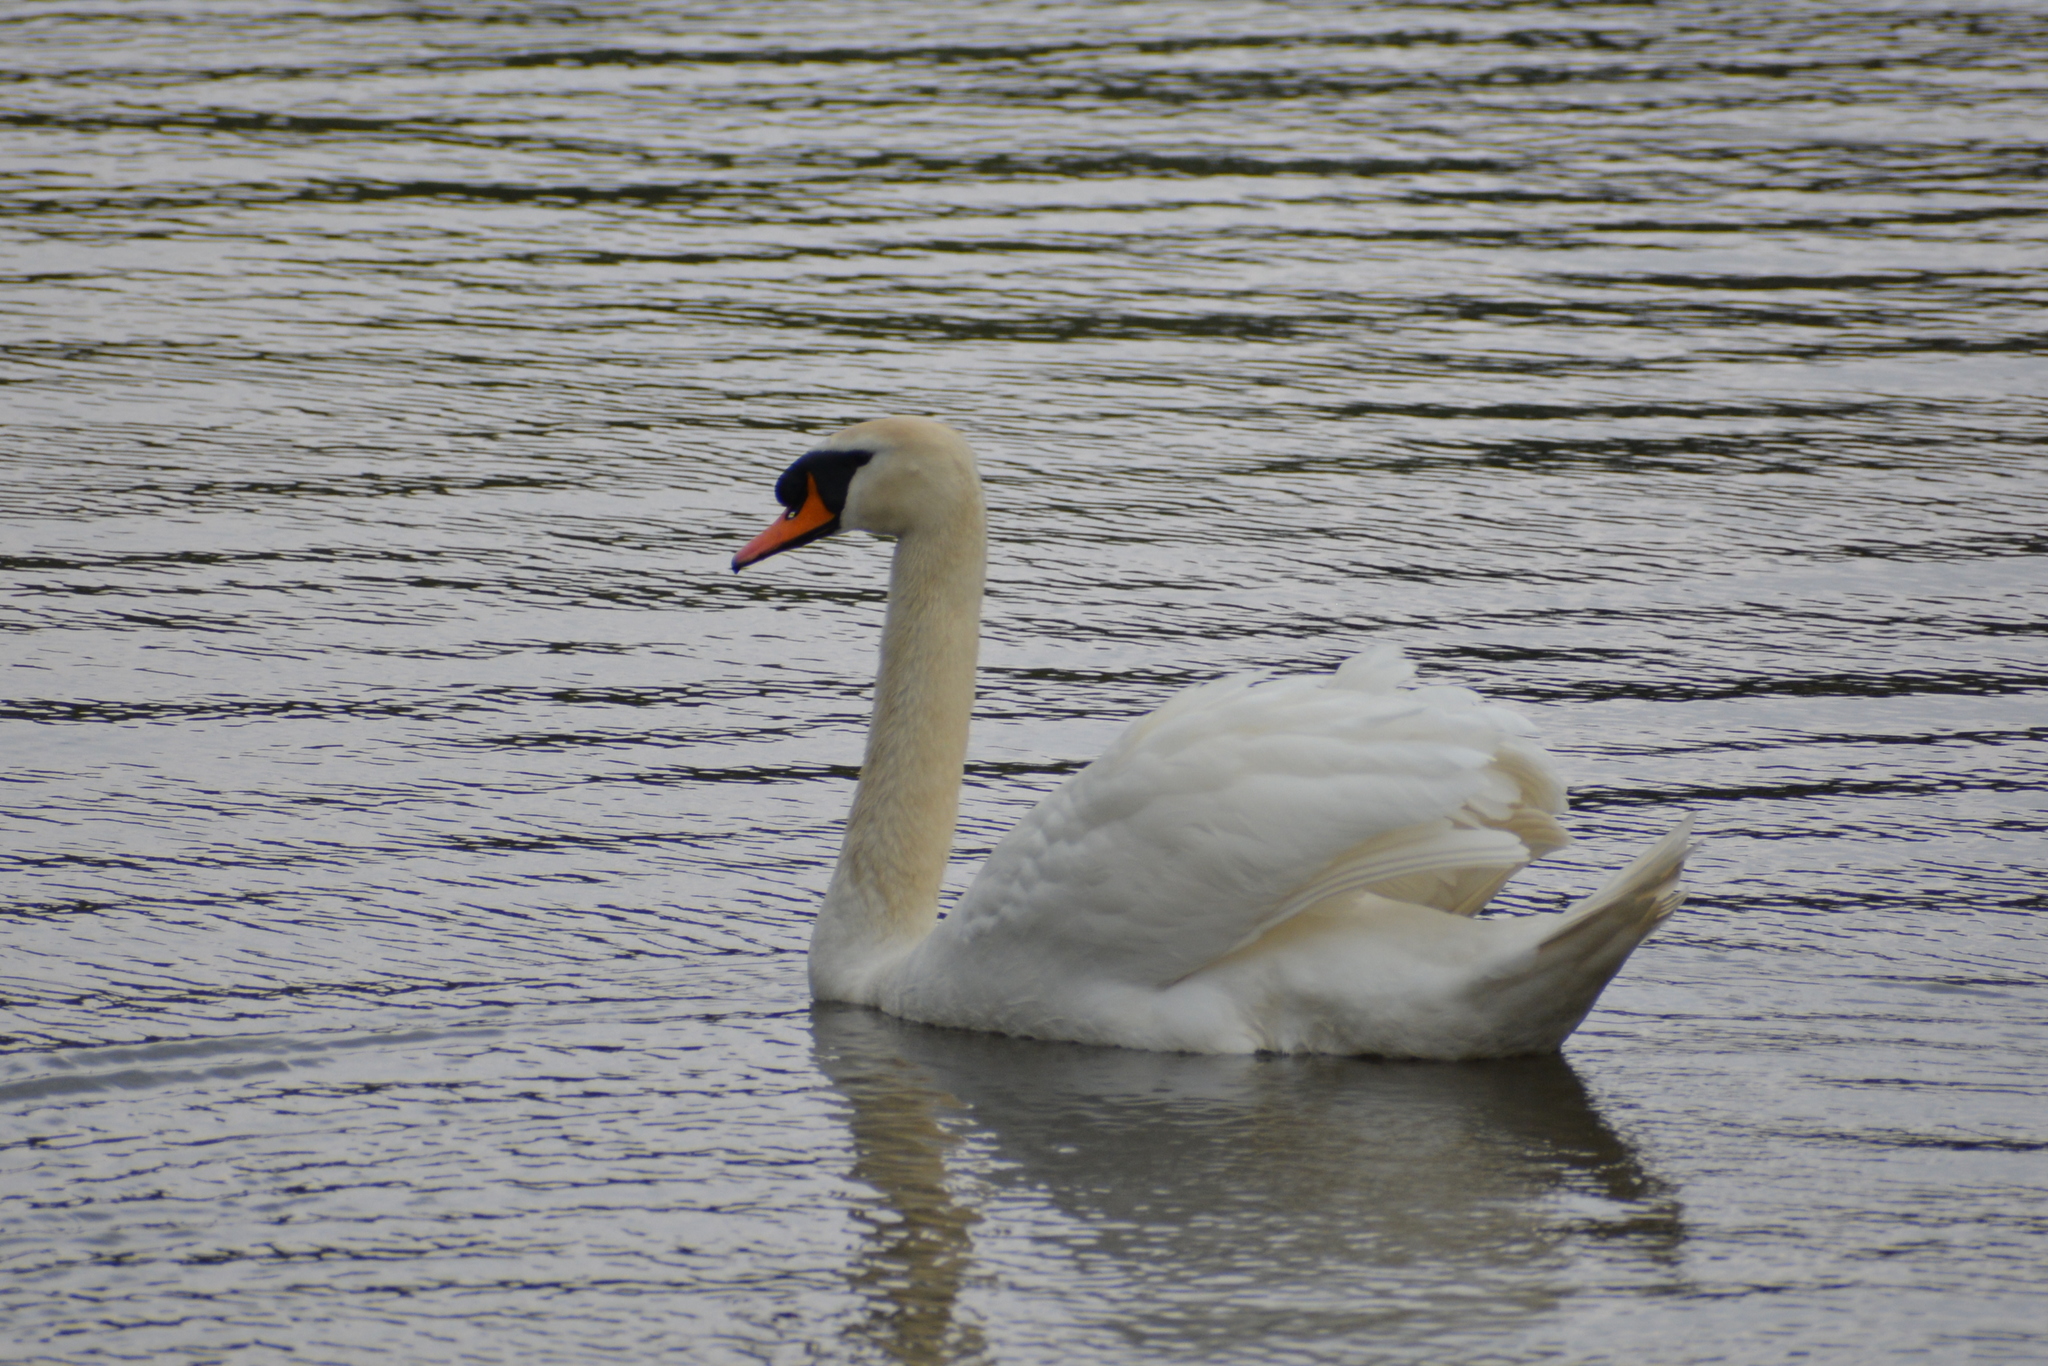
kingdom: Animalia
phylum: Chordata
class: Aves
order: Anseriformes
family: Anatidae
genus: Cygnus
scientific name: Cygnus olor
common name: Mute swan
